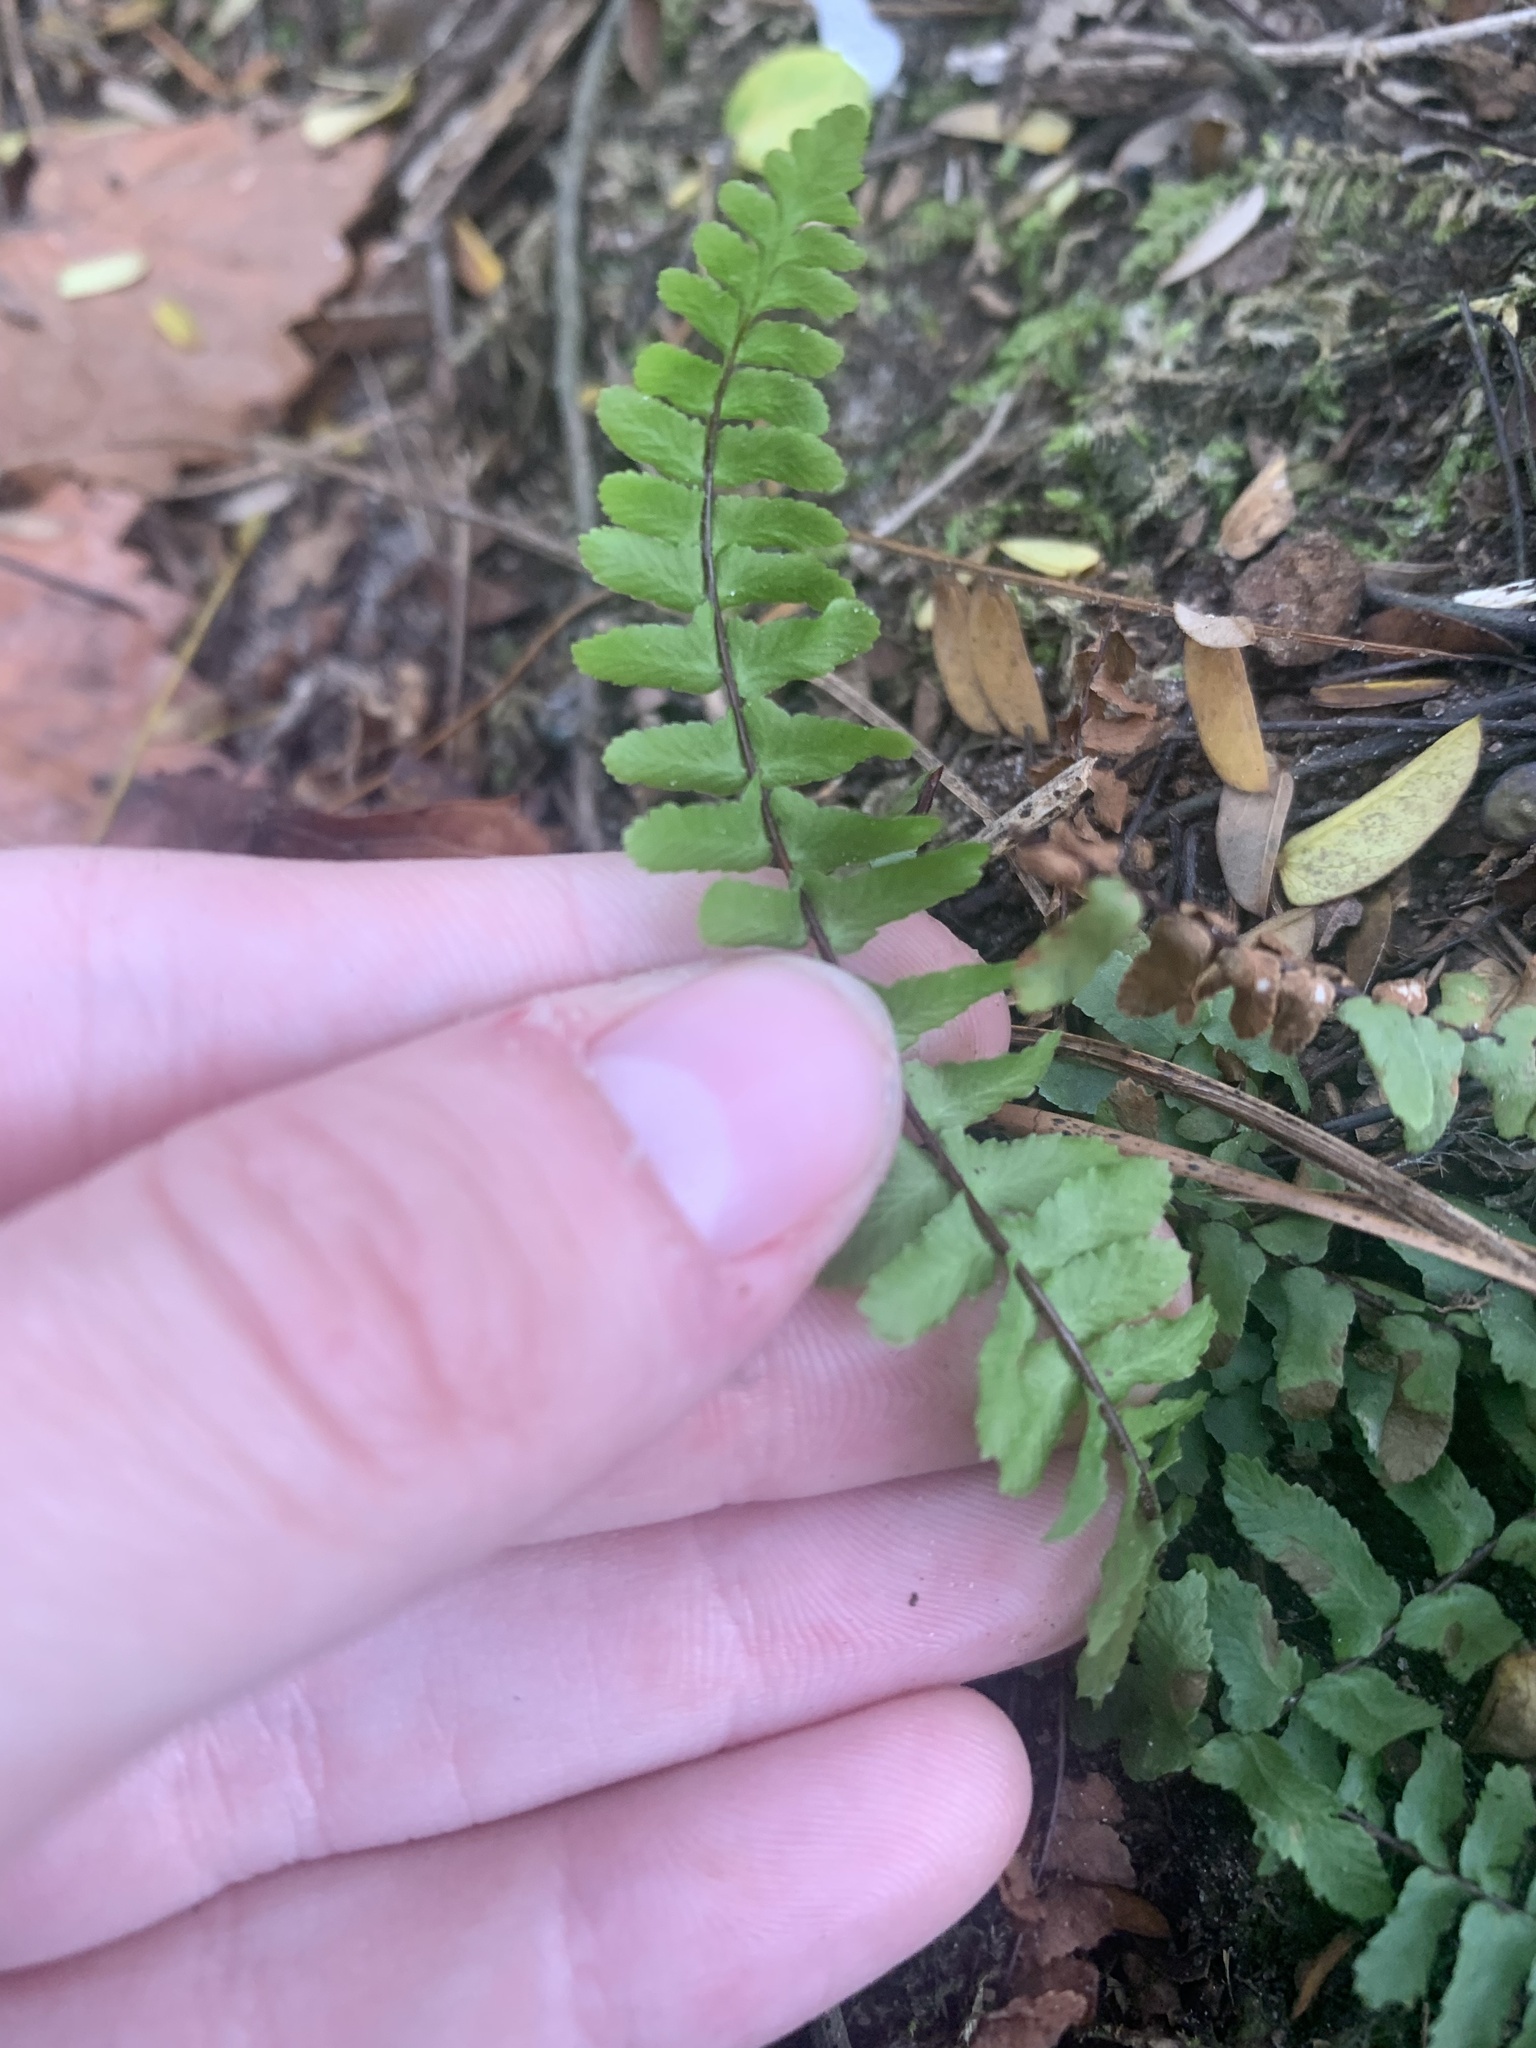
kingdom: Plantae
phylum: Tracheophyta
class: Polypodiopsida
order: Polypodiales
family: Aspleniaceae
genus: Asplenium
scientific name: Asplenium platyneuron
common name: Ebony spleenwort
